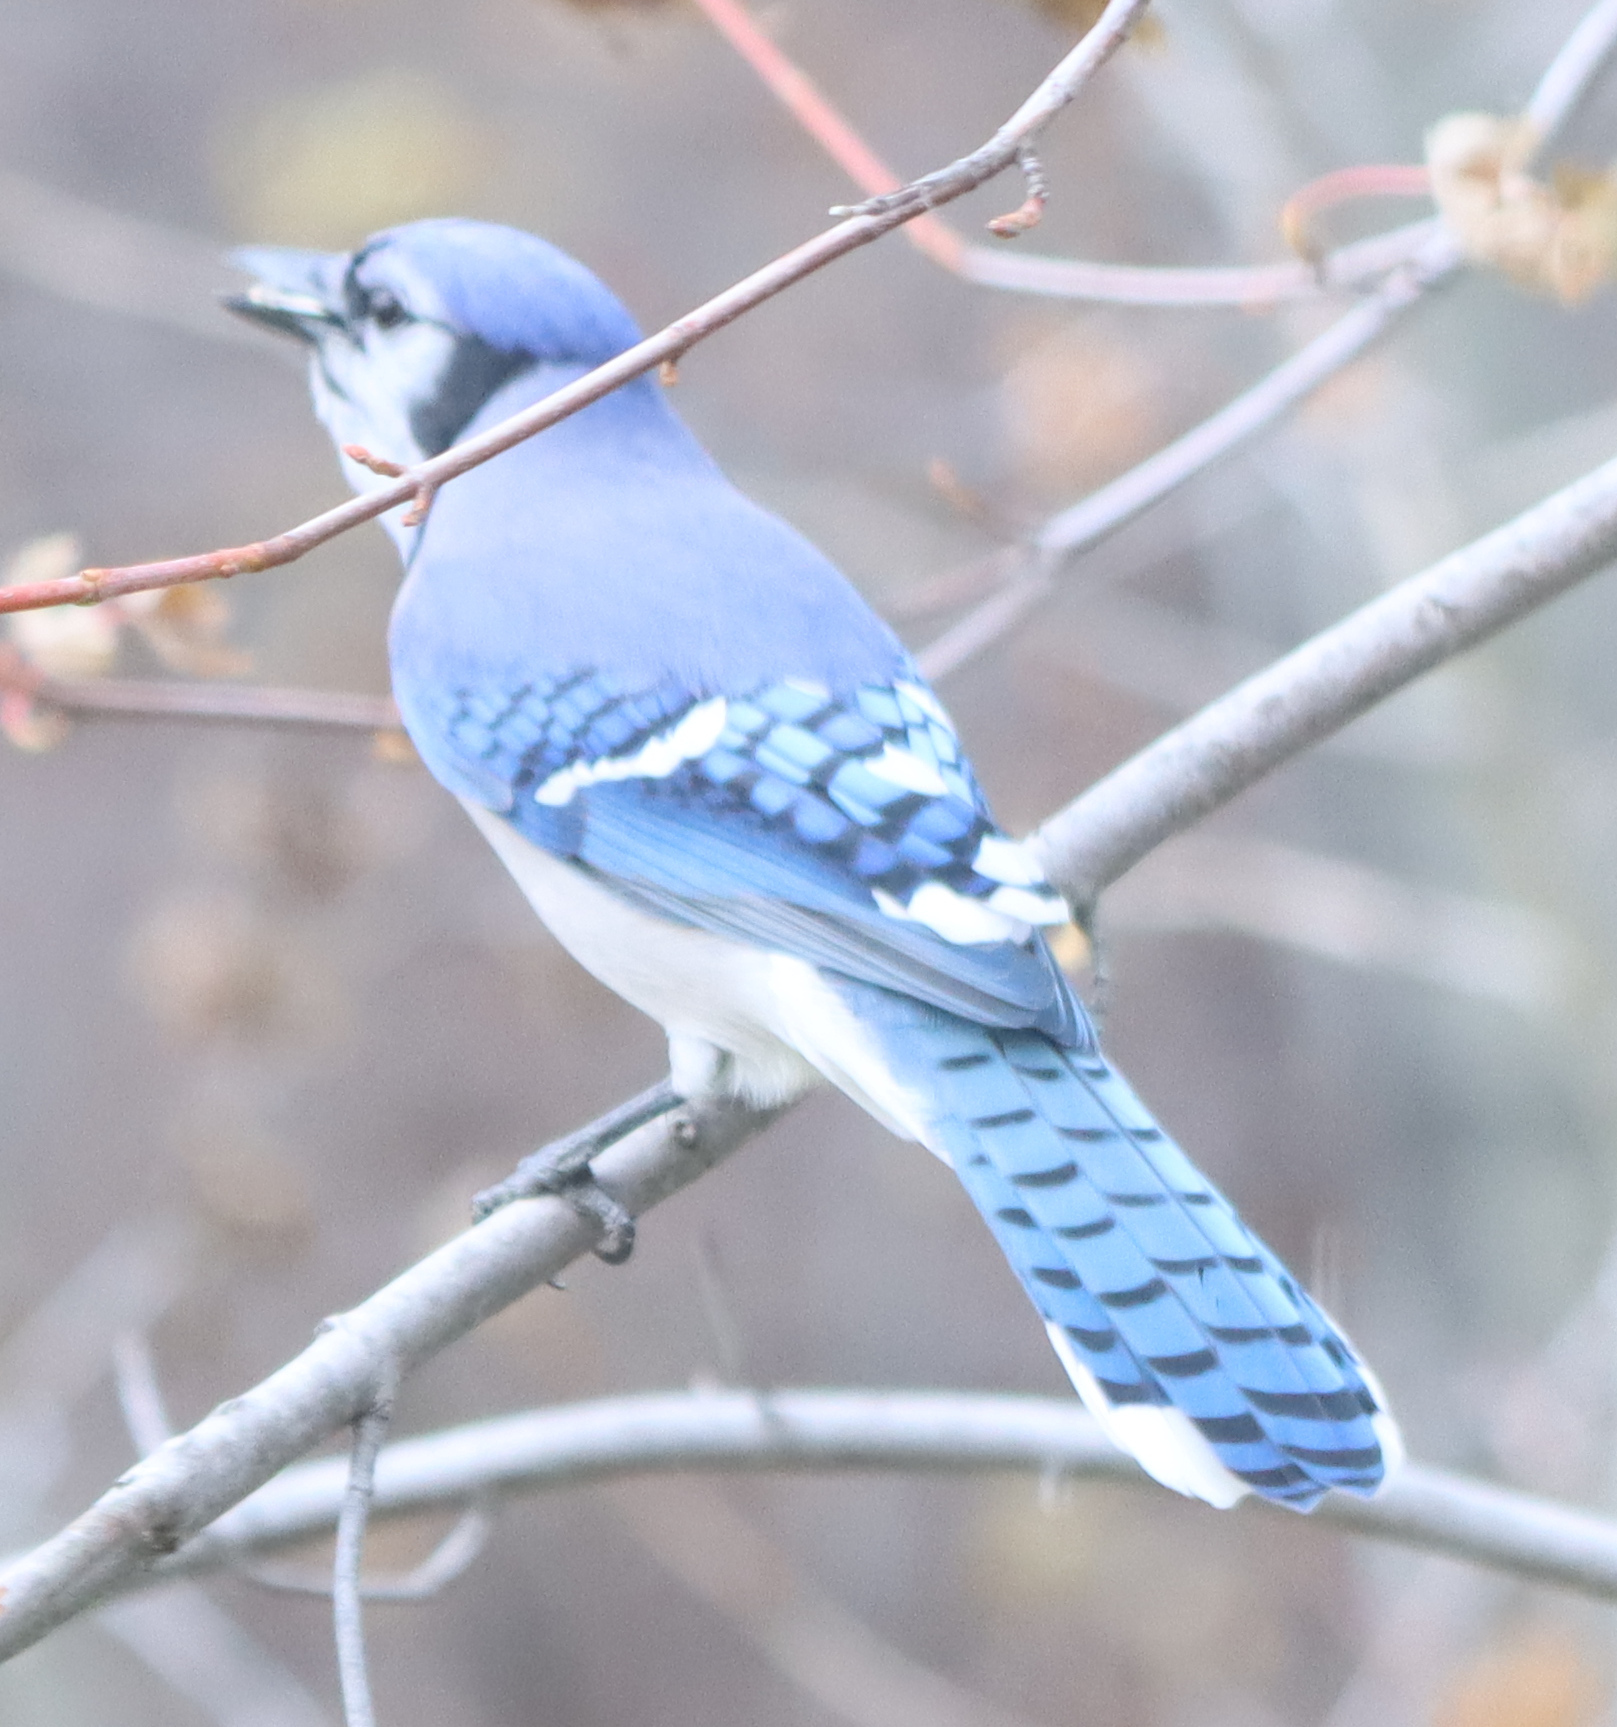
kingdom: Animalia
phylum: Chordata
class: Aves
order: Passeriformes
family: Corvidae
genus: Cyanocitta
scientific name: Cyanocitta cristata
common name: Blue jay
